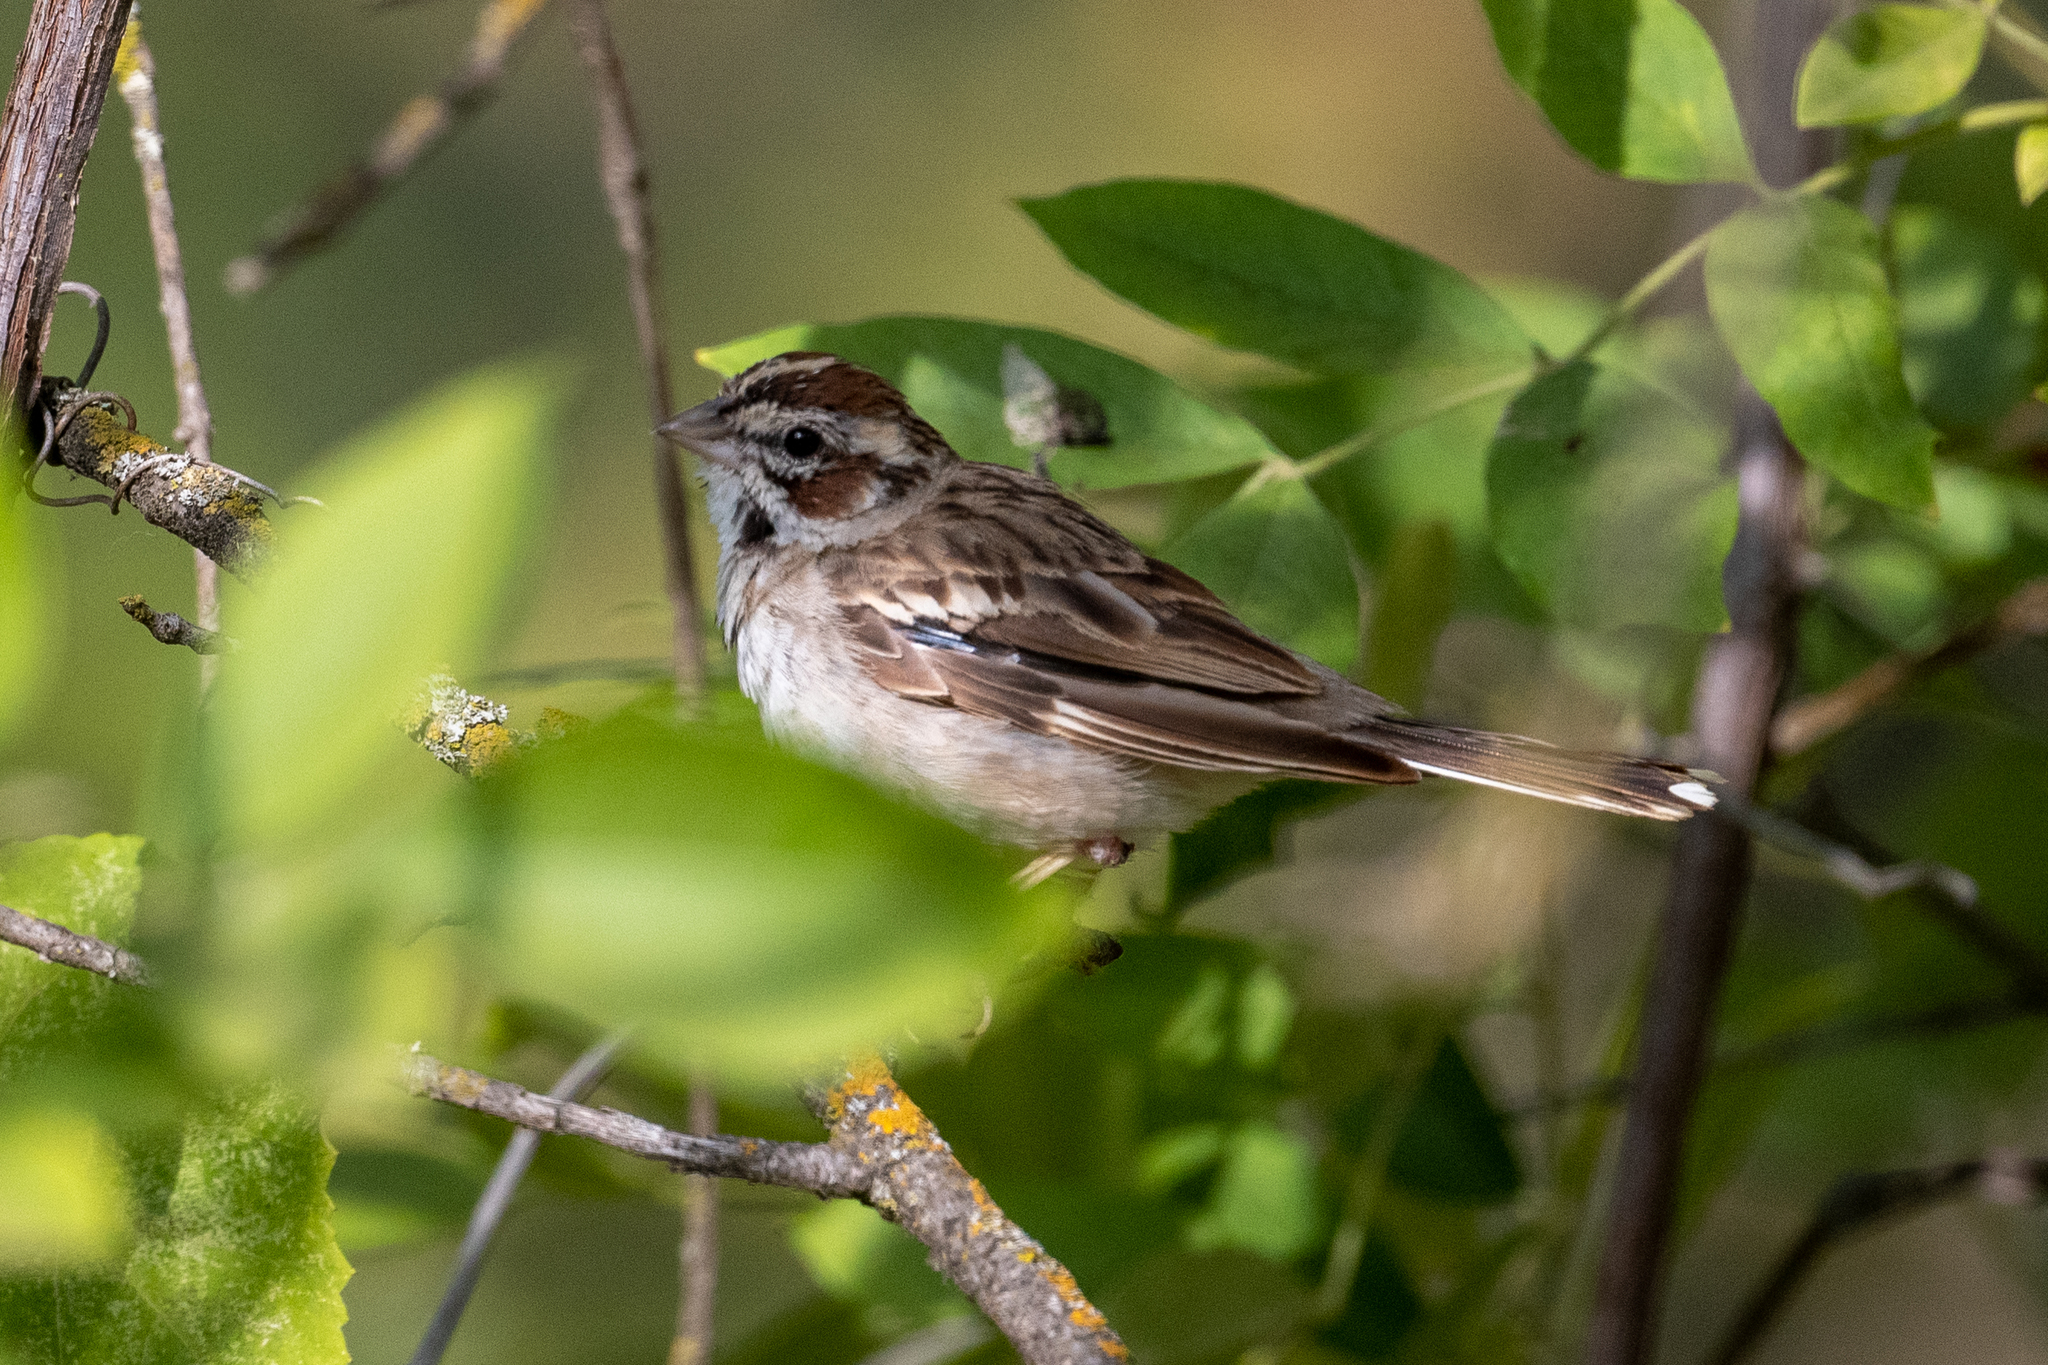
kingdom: Animalia
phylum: Chordata
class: Aves
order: Passeriformes
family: Passerellidae
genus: Chondestes
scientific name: Chondestes grammacus
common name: Lark sparrow
